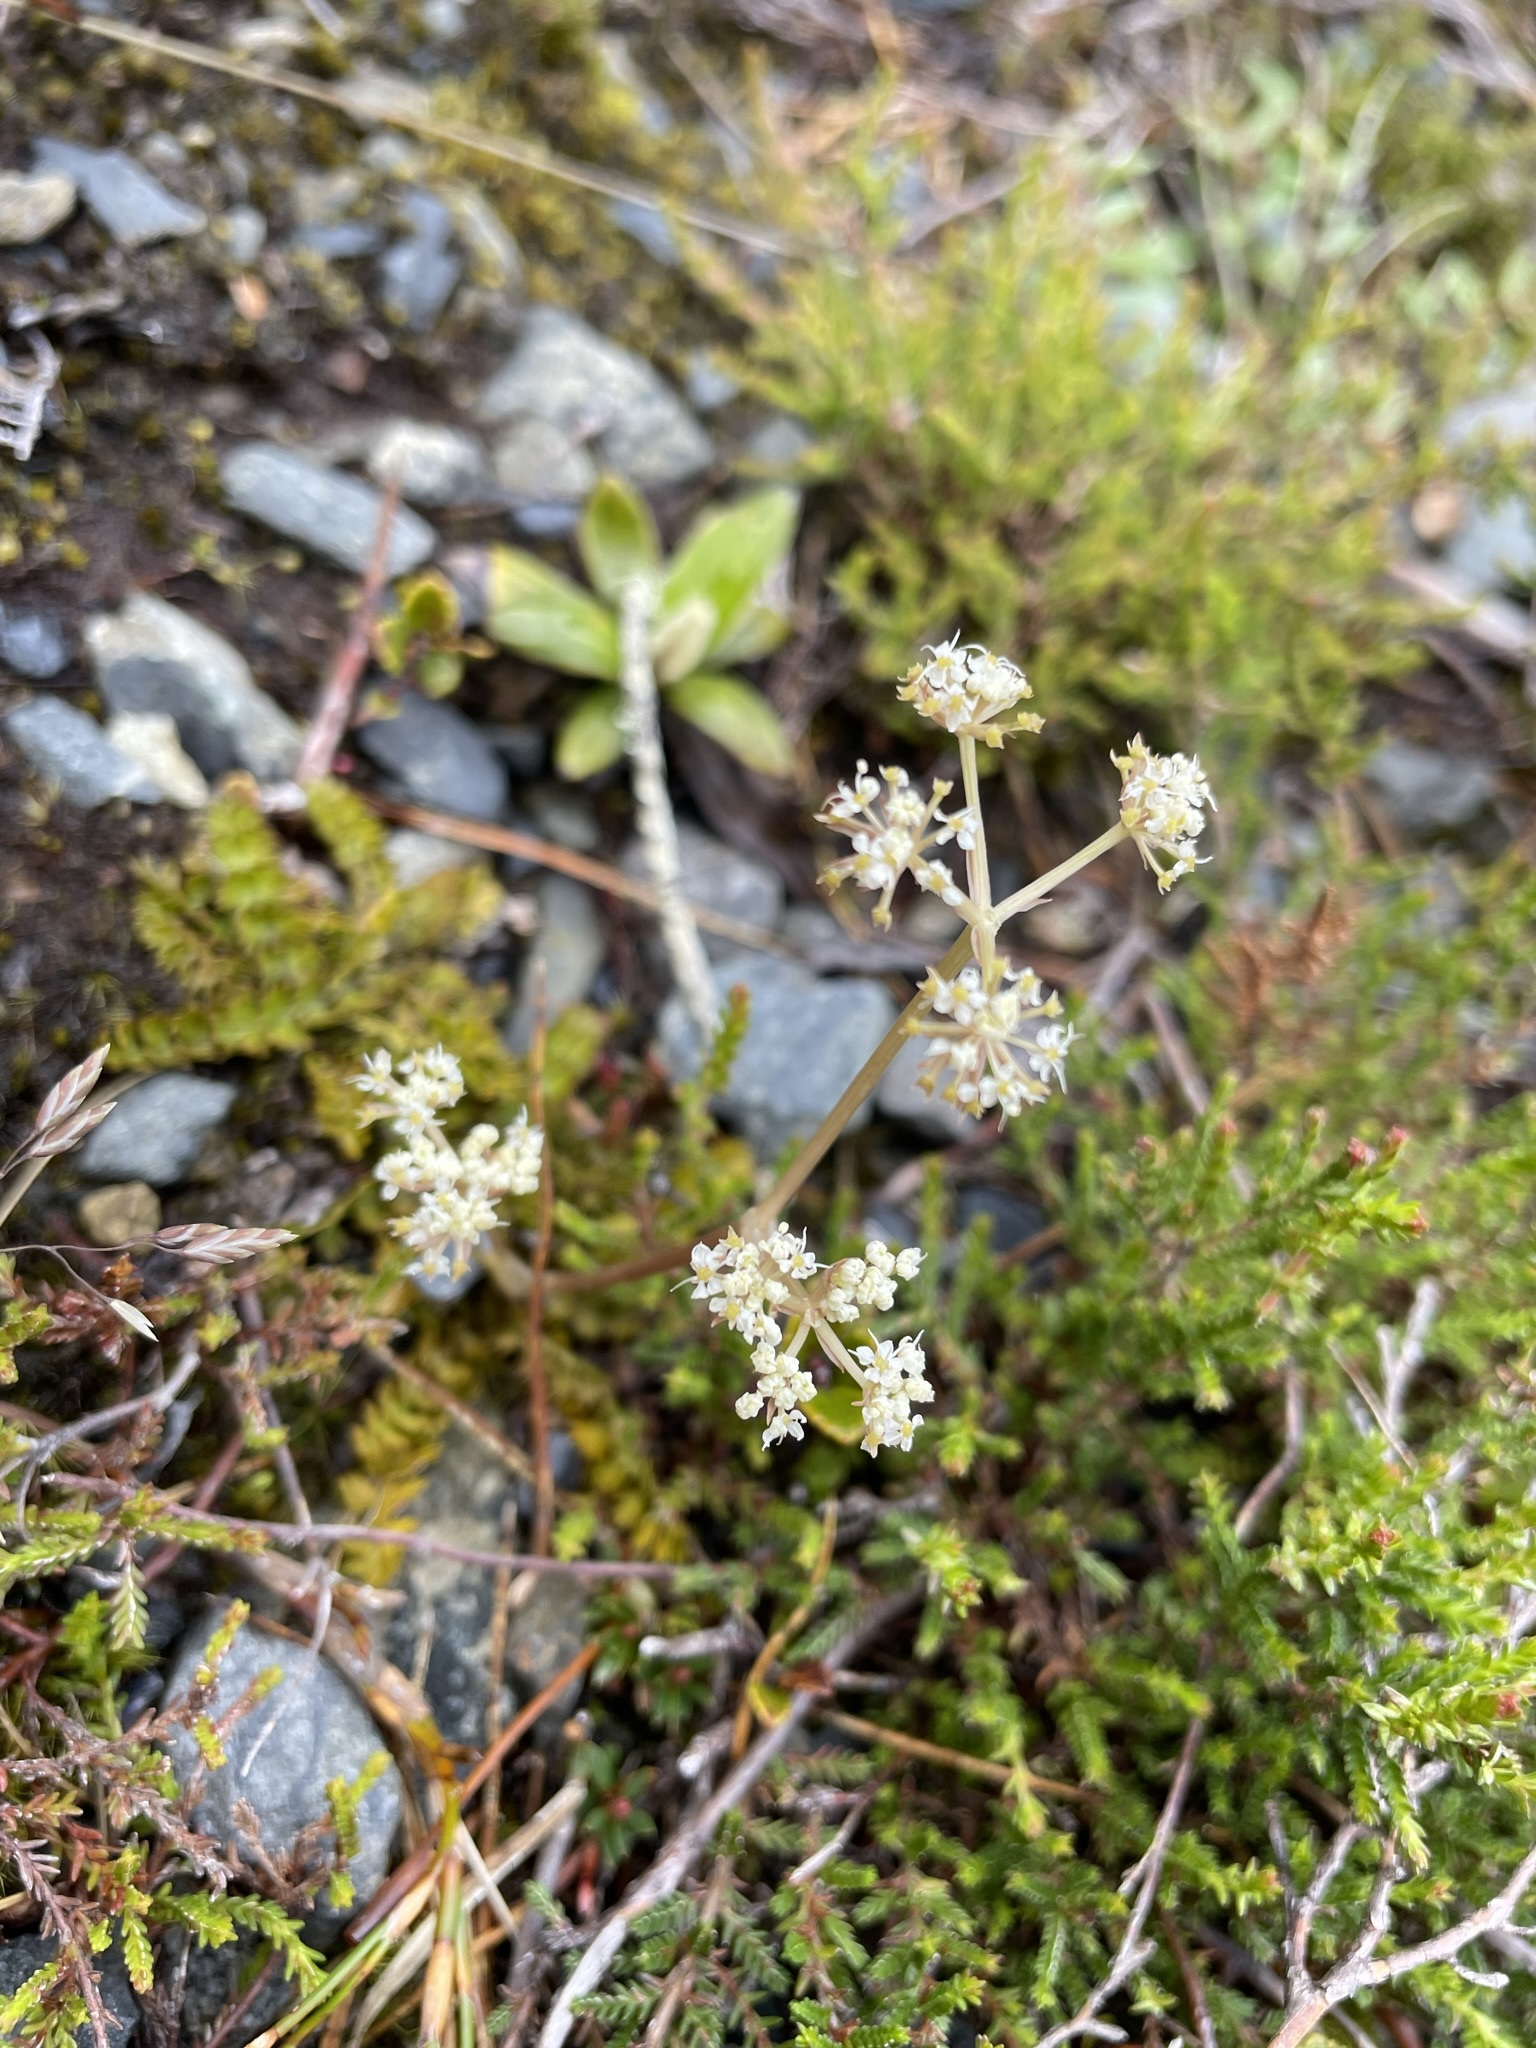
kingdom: Plantae
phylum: Tracheophyta
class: Magnoliopsida
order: Apiales
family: Apiaceae
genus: Anisotome
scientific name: Anisotome aromatica
